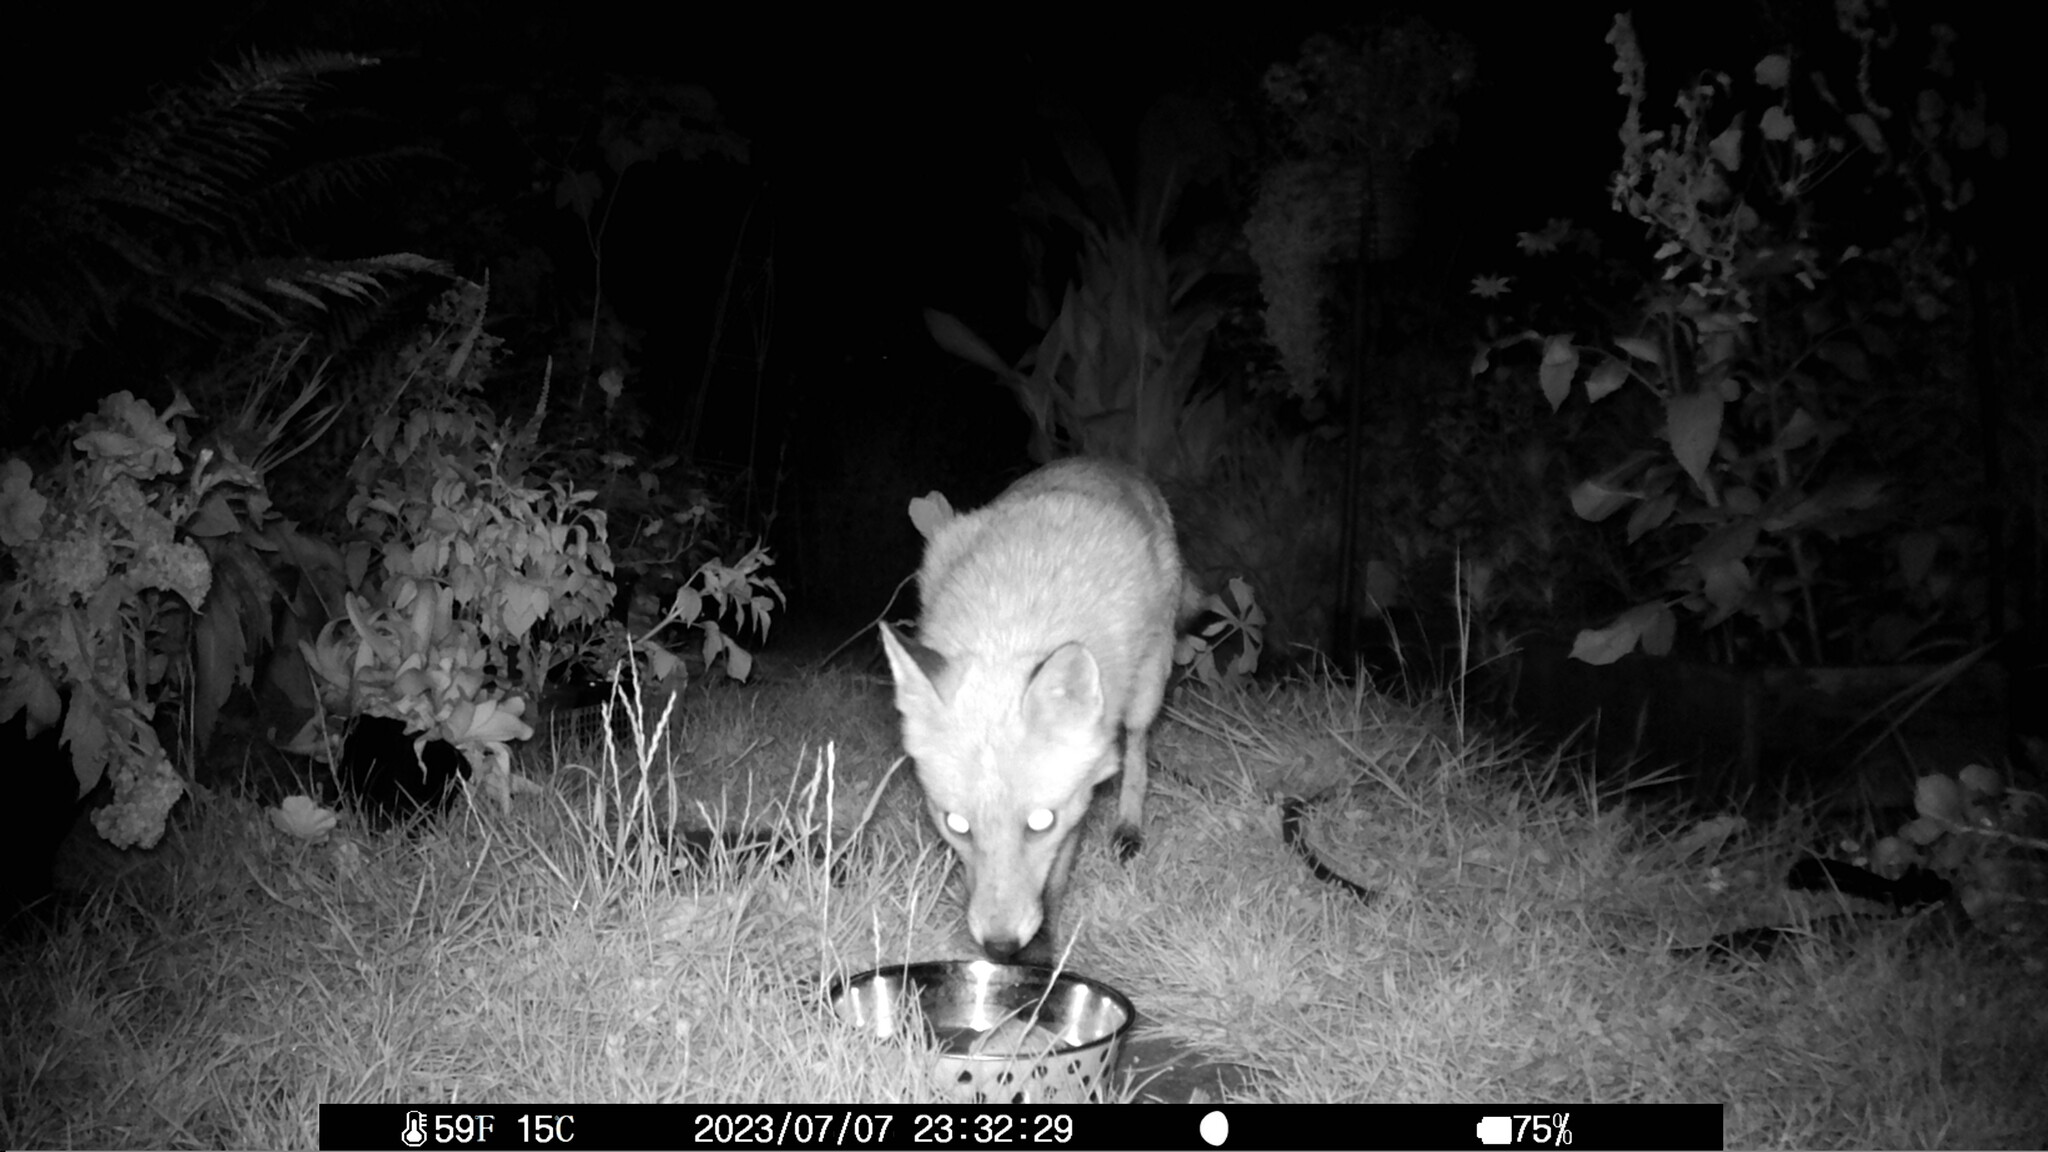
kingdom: Animalia
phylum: Chordata
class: Mammalia
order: Carnivora
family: Canidae
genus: Vulpes
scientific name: Vulpes vulpes
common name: Red fox
